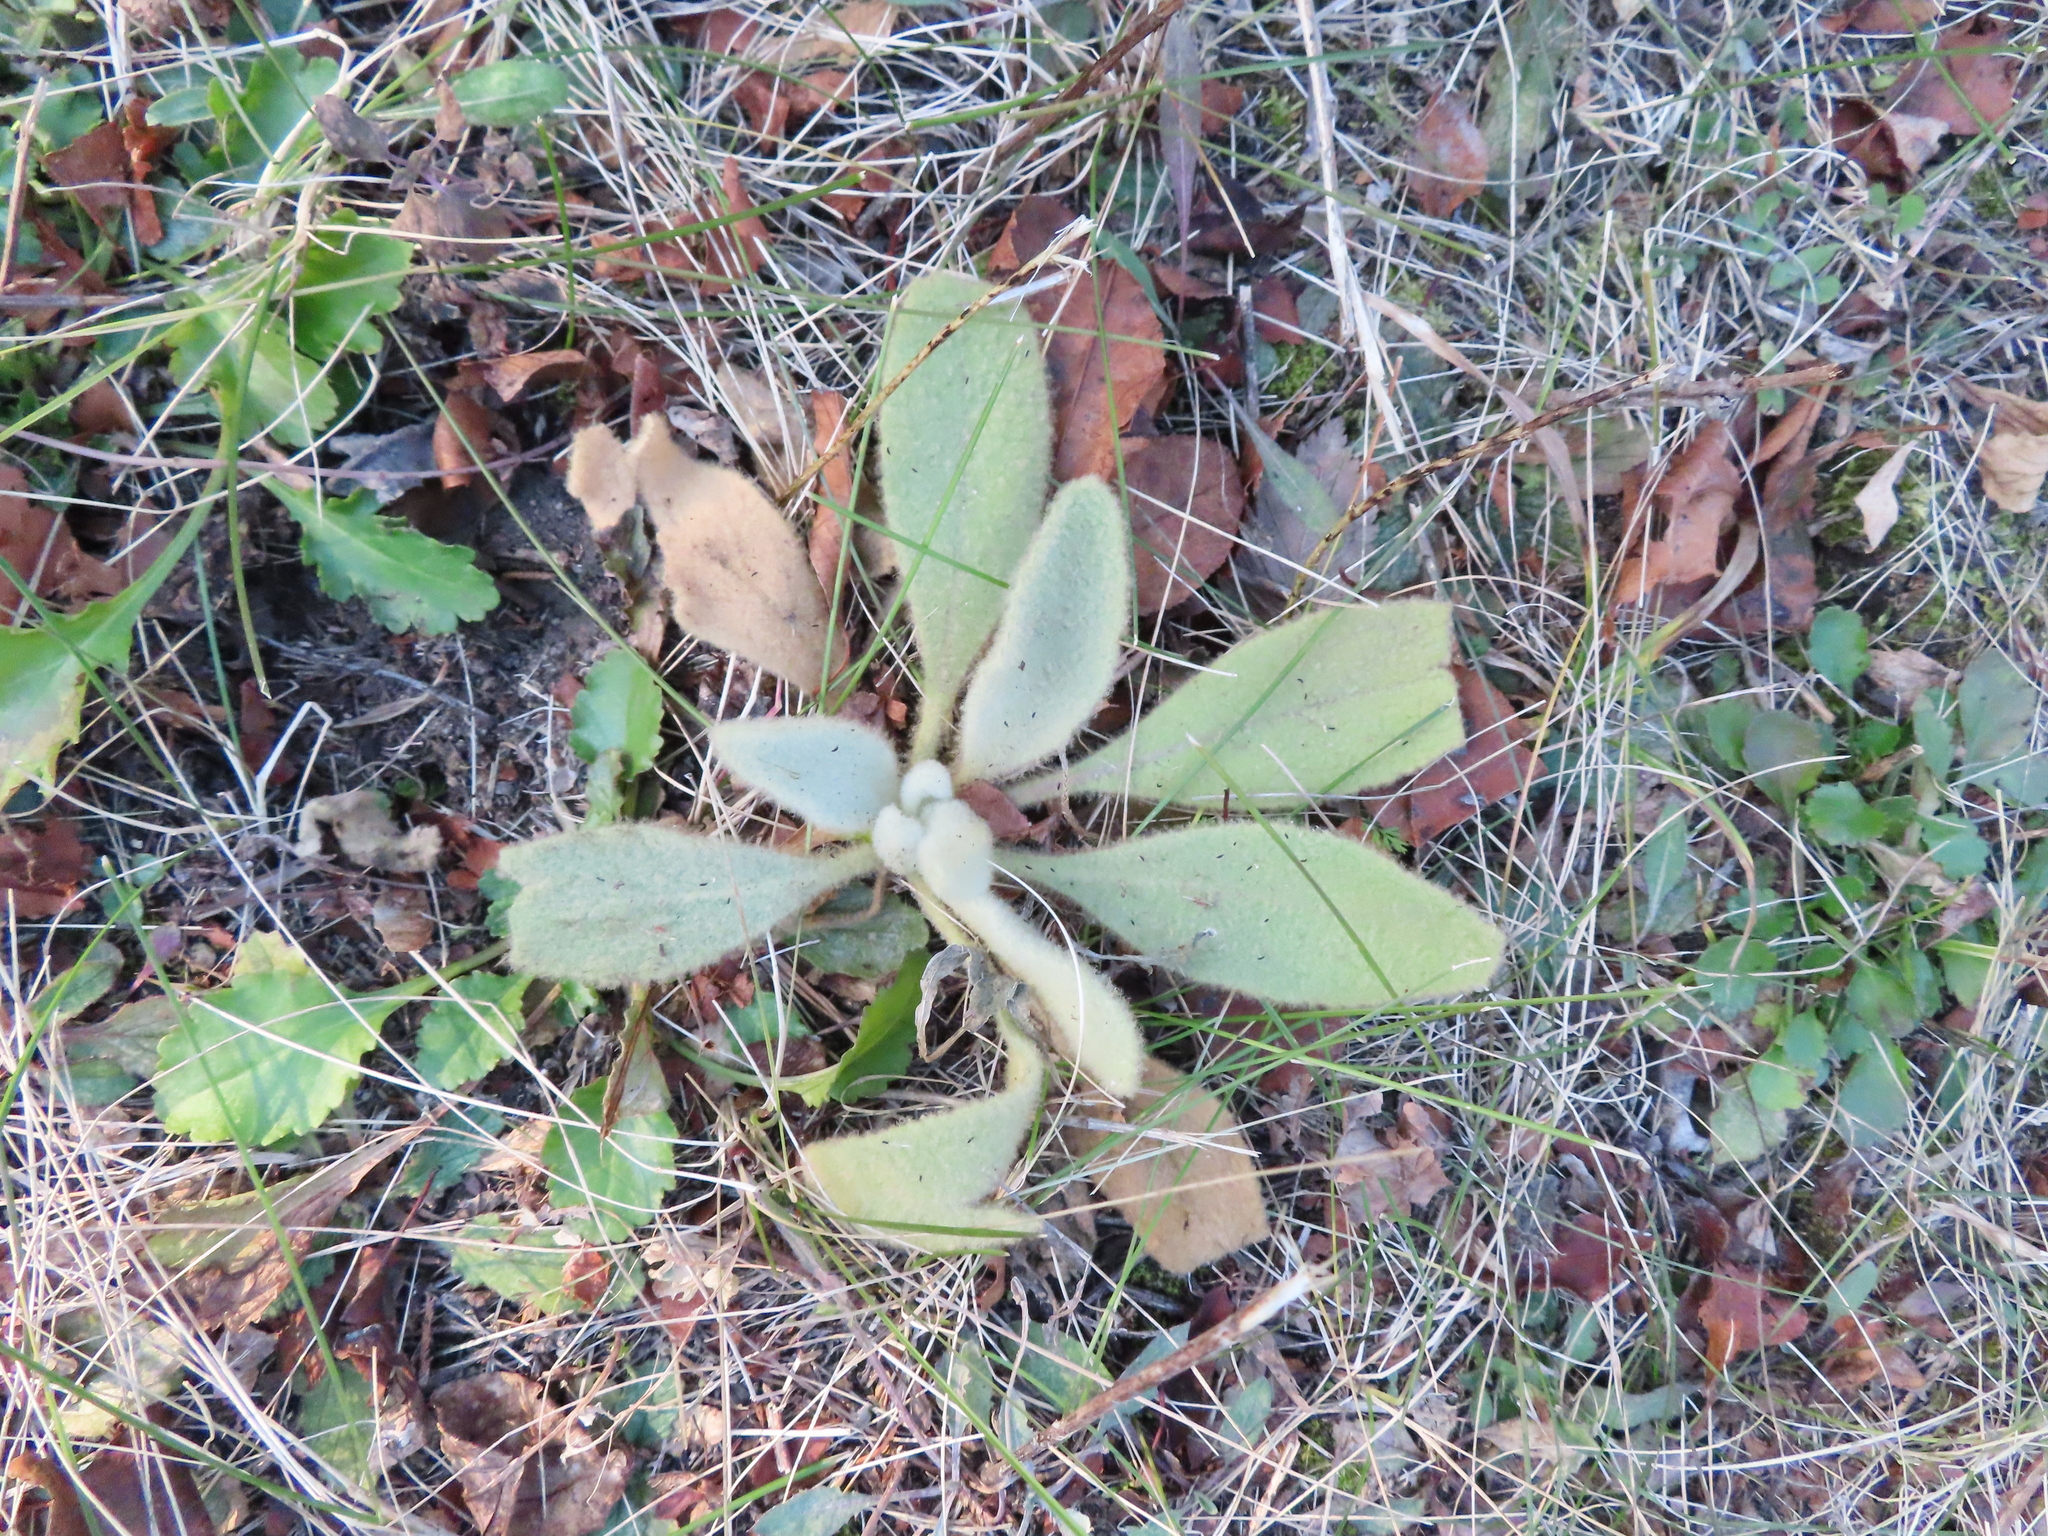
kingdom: Plantae
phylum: Tracheophyta
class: Magnoliopsida
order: Lamiales
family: Scrophulariaceae
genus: Verbascum
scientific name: Verbascum thapsus
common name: Common mullein
